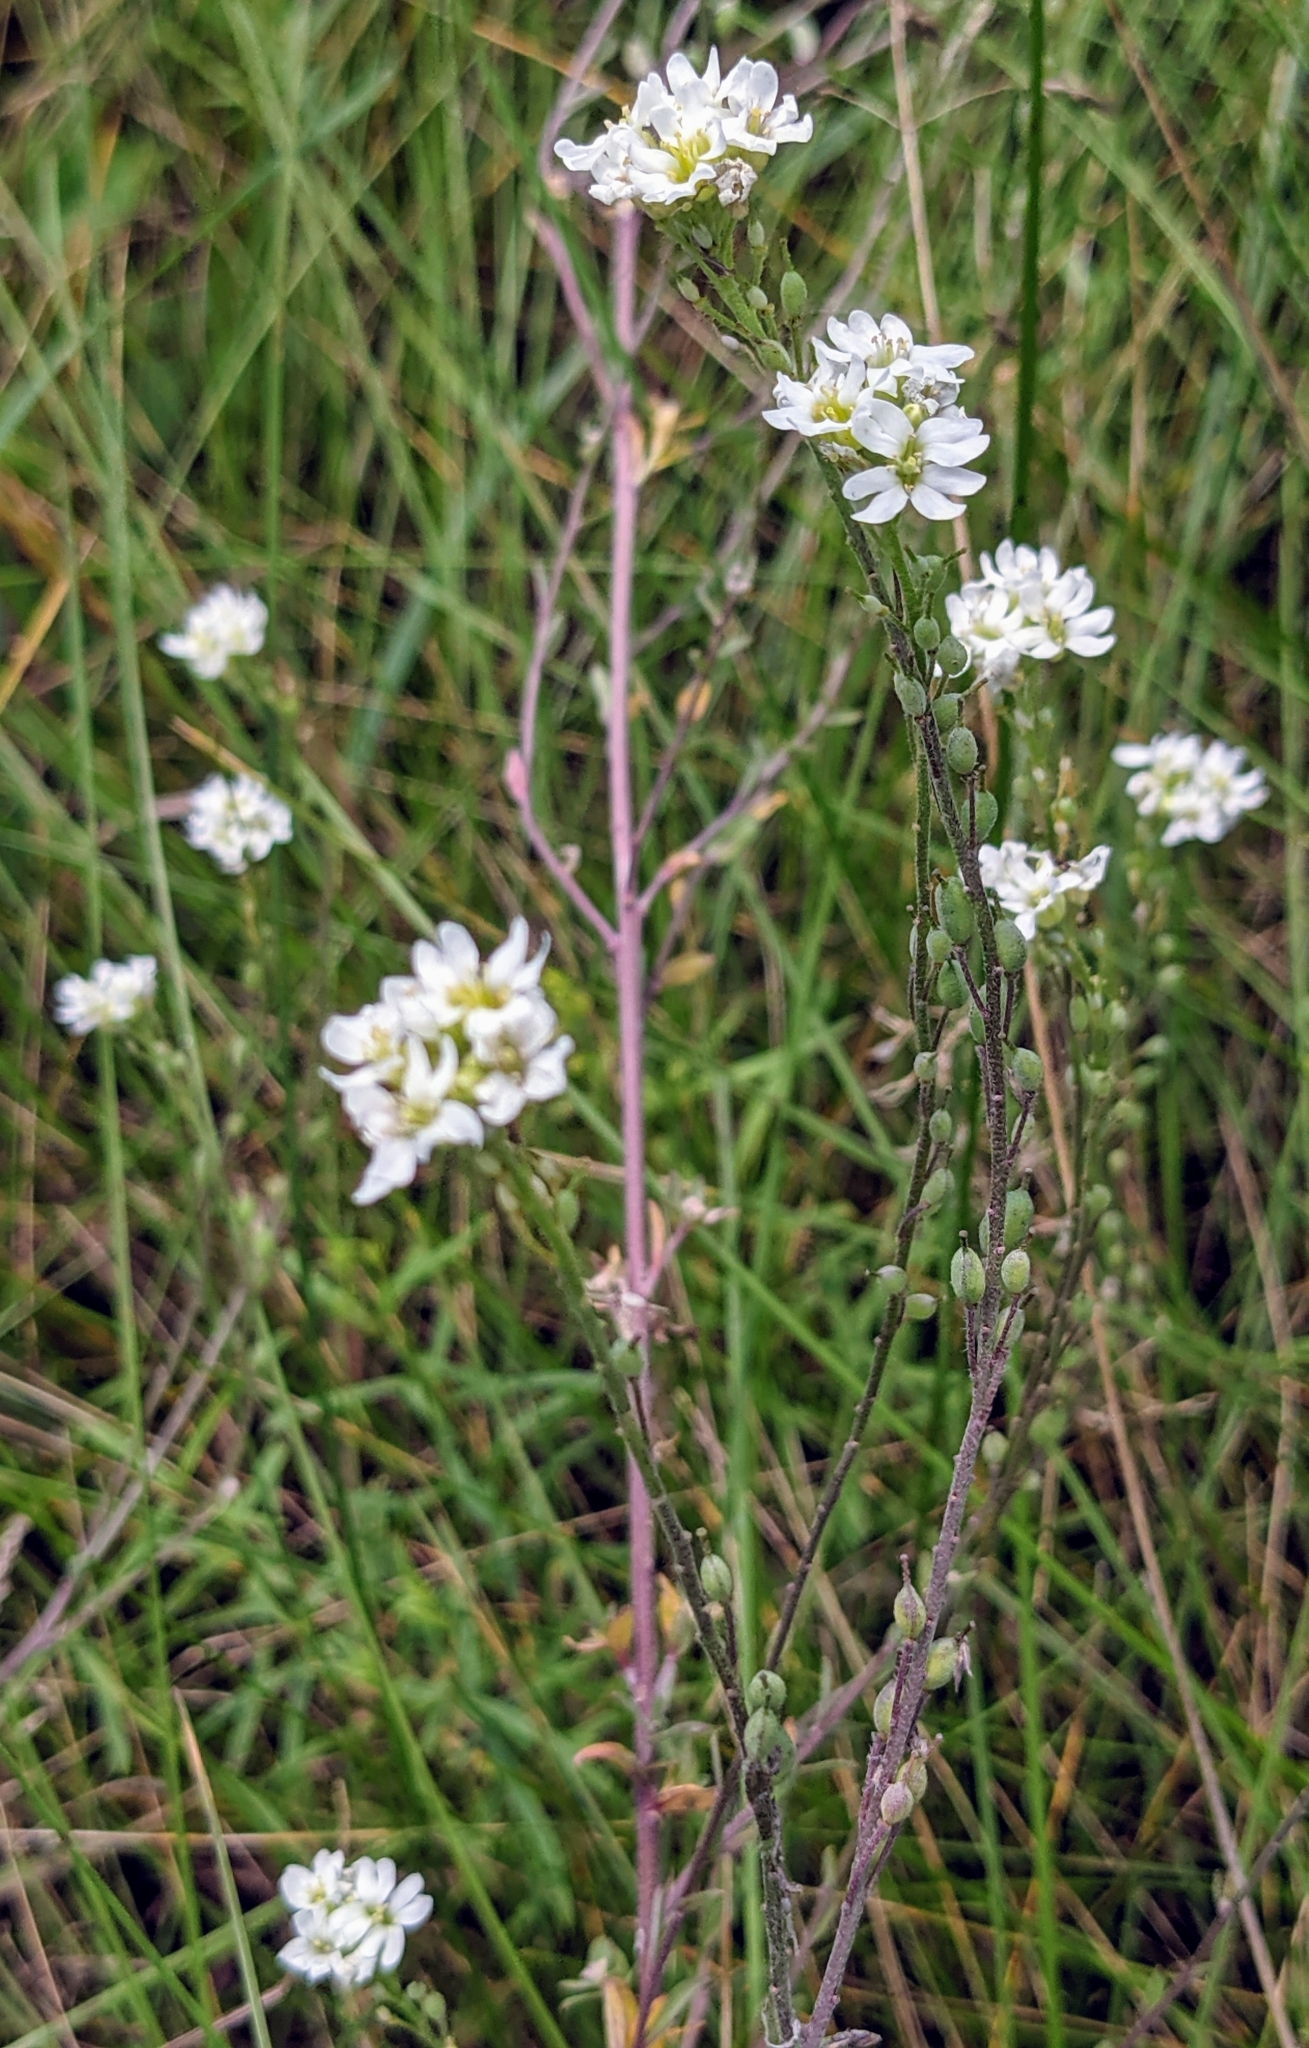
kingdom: Plantae
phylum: Tracheophyta
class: Magnoliopsida
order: Brassicales
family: Brassicaceae
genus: Berteroa
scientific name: Berteroa incana
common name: Hoary alison
